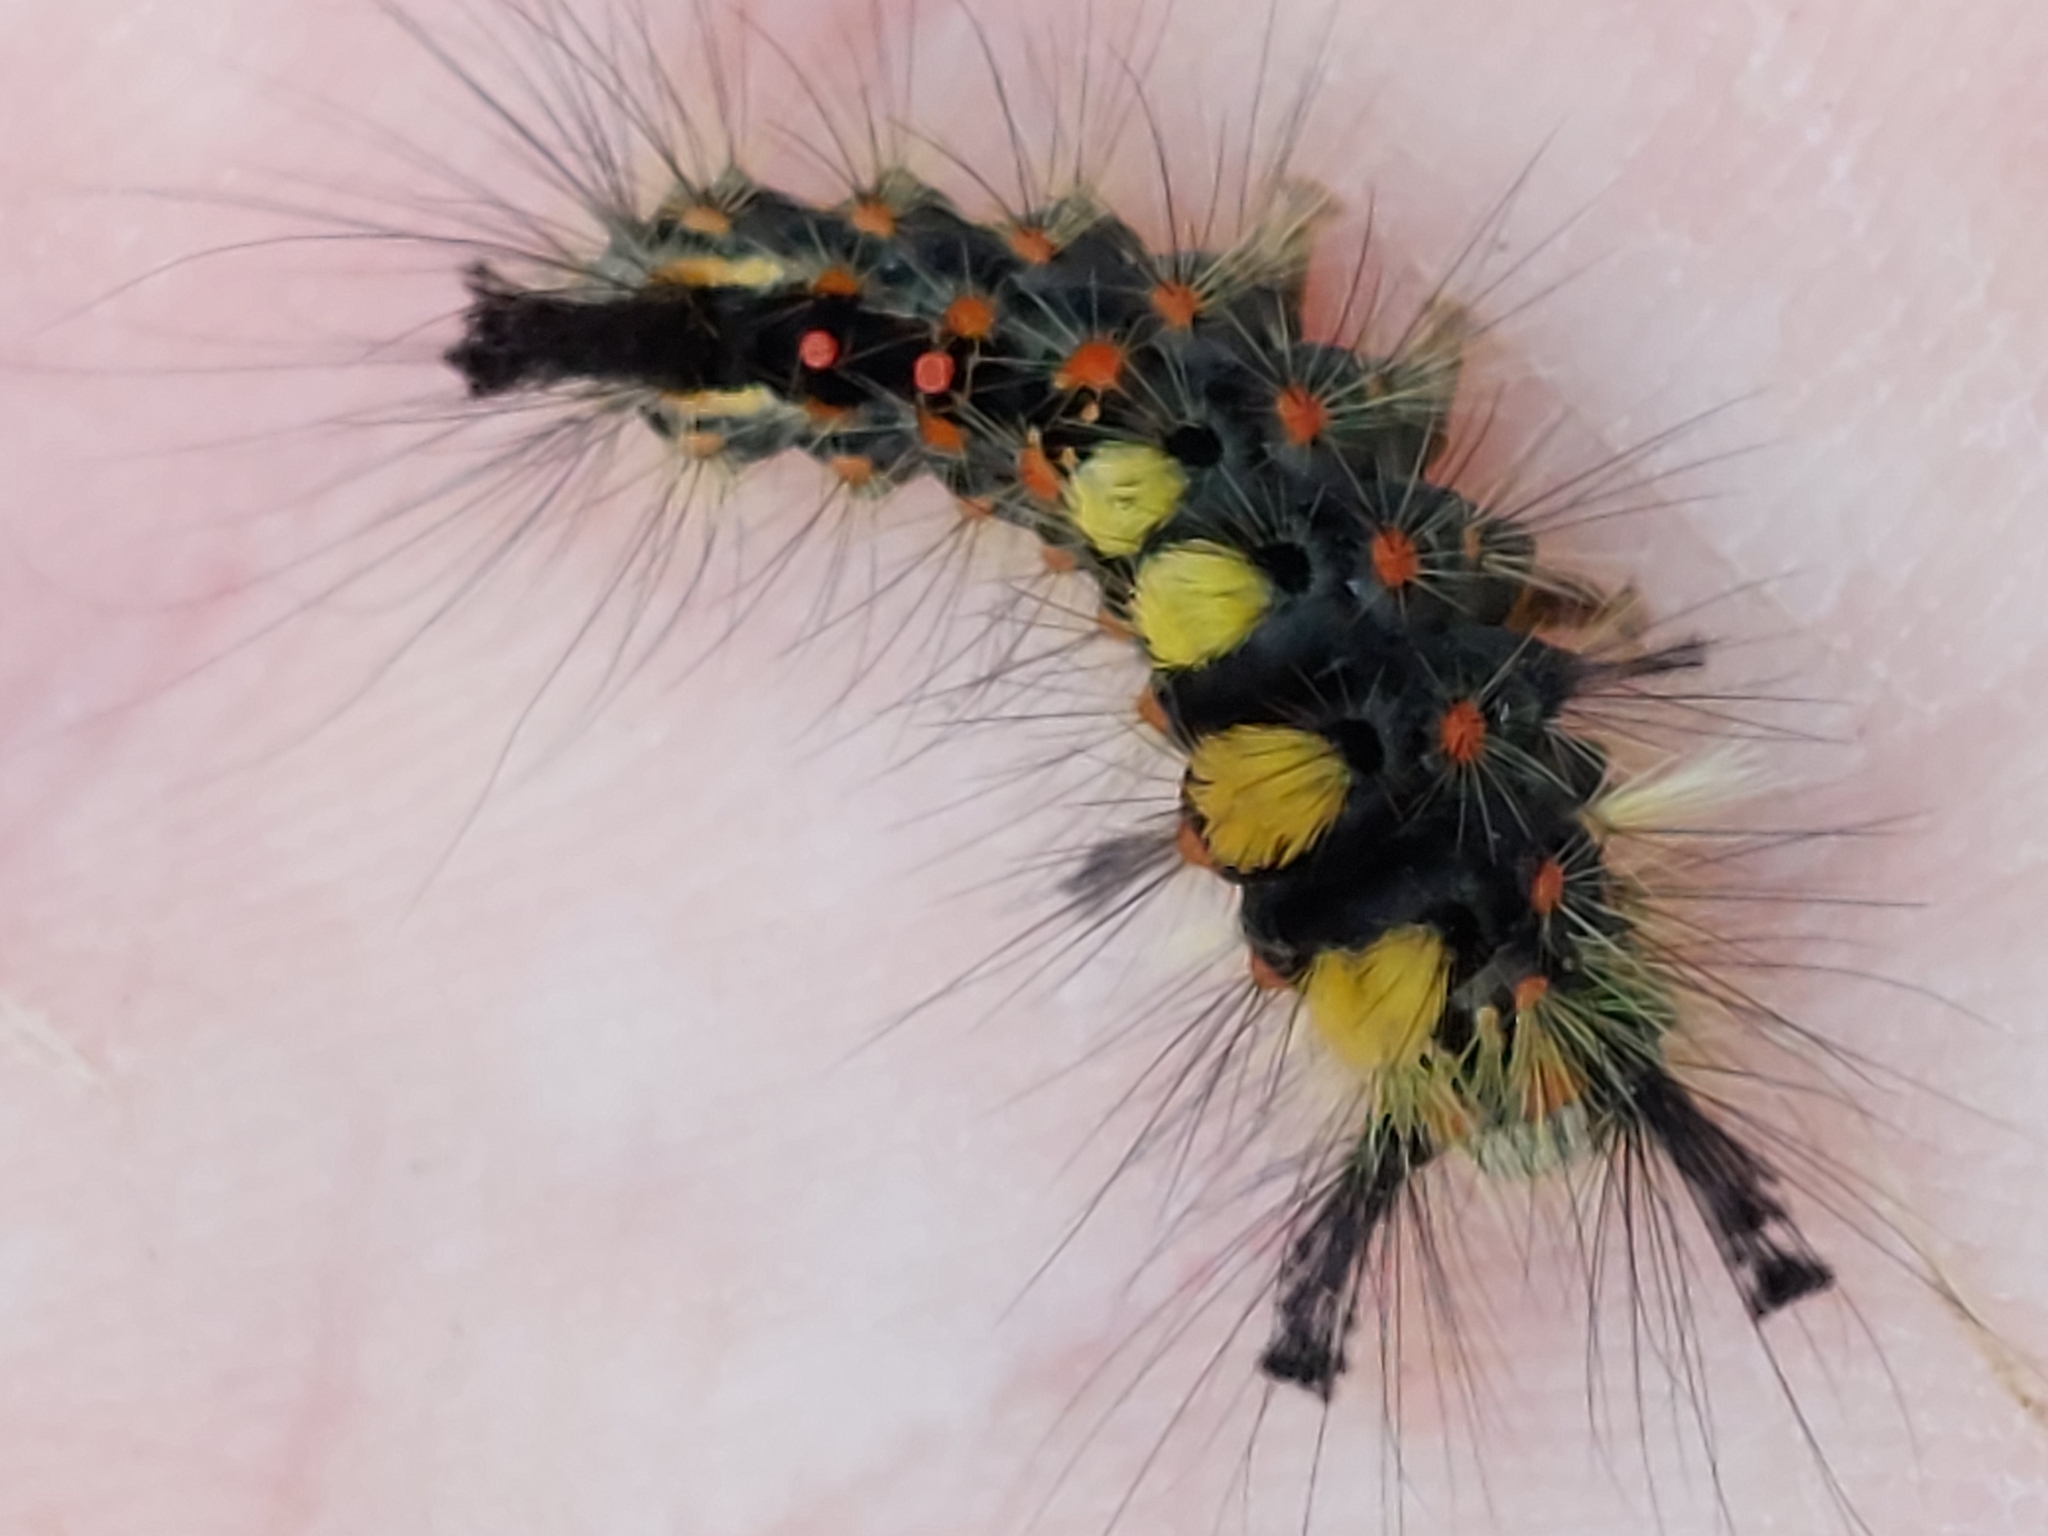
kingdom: Animalia
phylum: Arthropoda
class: Insecta
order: Lepidoptera
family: Erebidae
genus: Orgyia
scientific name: Orgyia antiqua
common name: Vapourer
